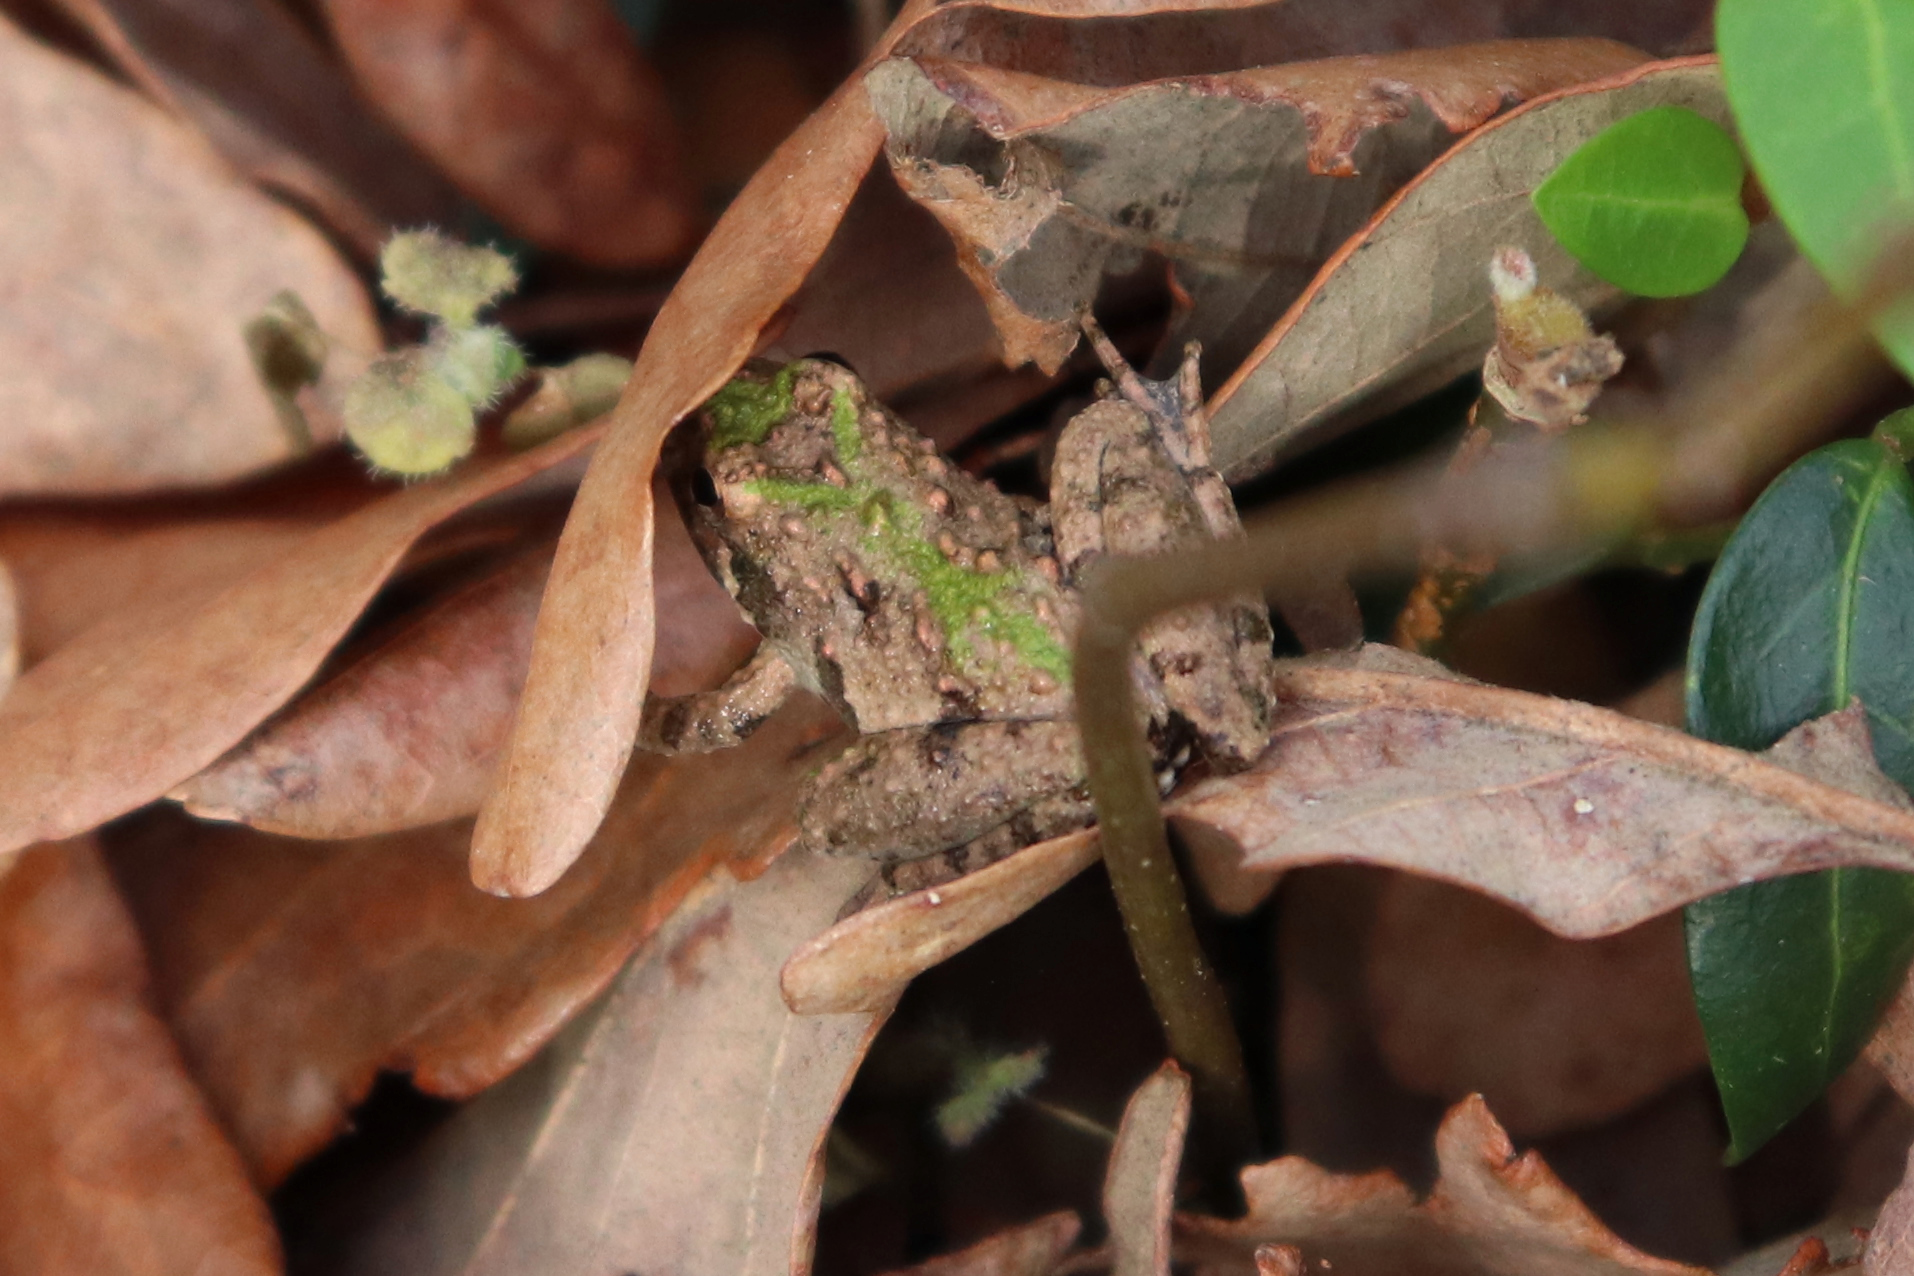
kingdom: Animalia
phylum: Chordata
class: Amphibia
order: Anura
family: Hylidae
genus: Acris
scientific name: Acris crepitans
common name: Northern cricket frog
